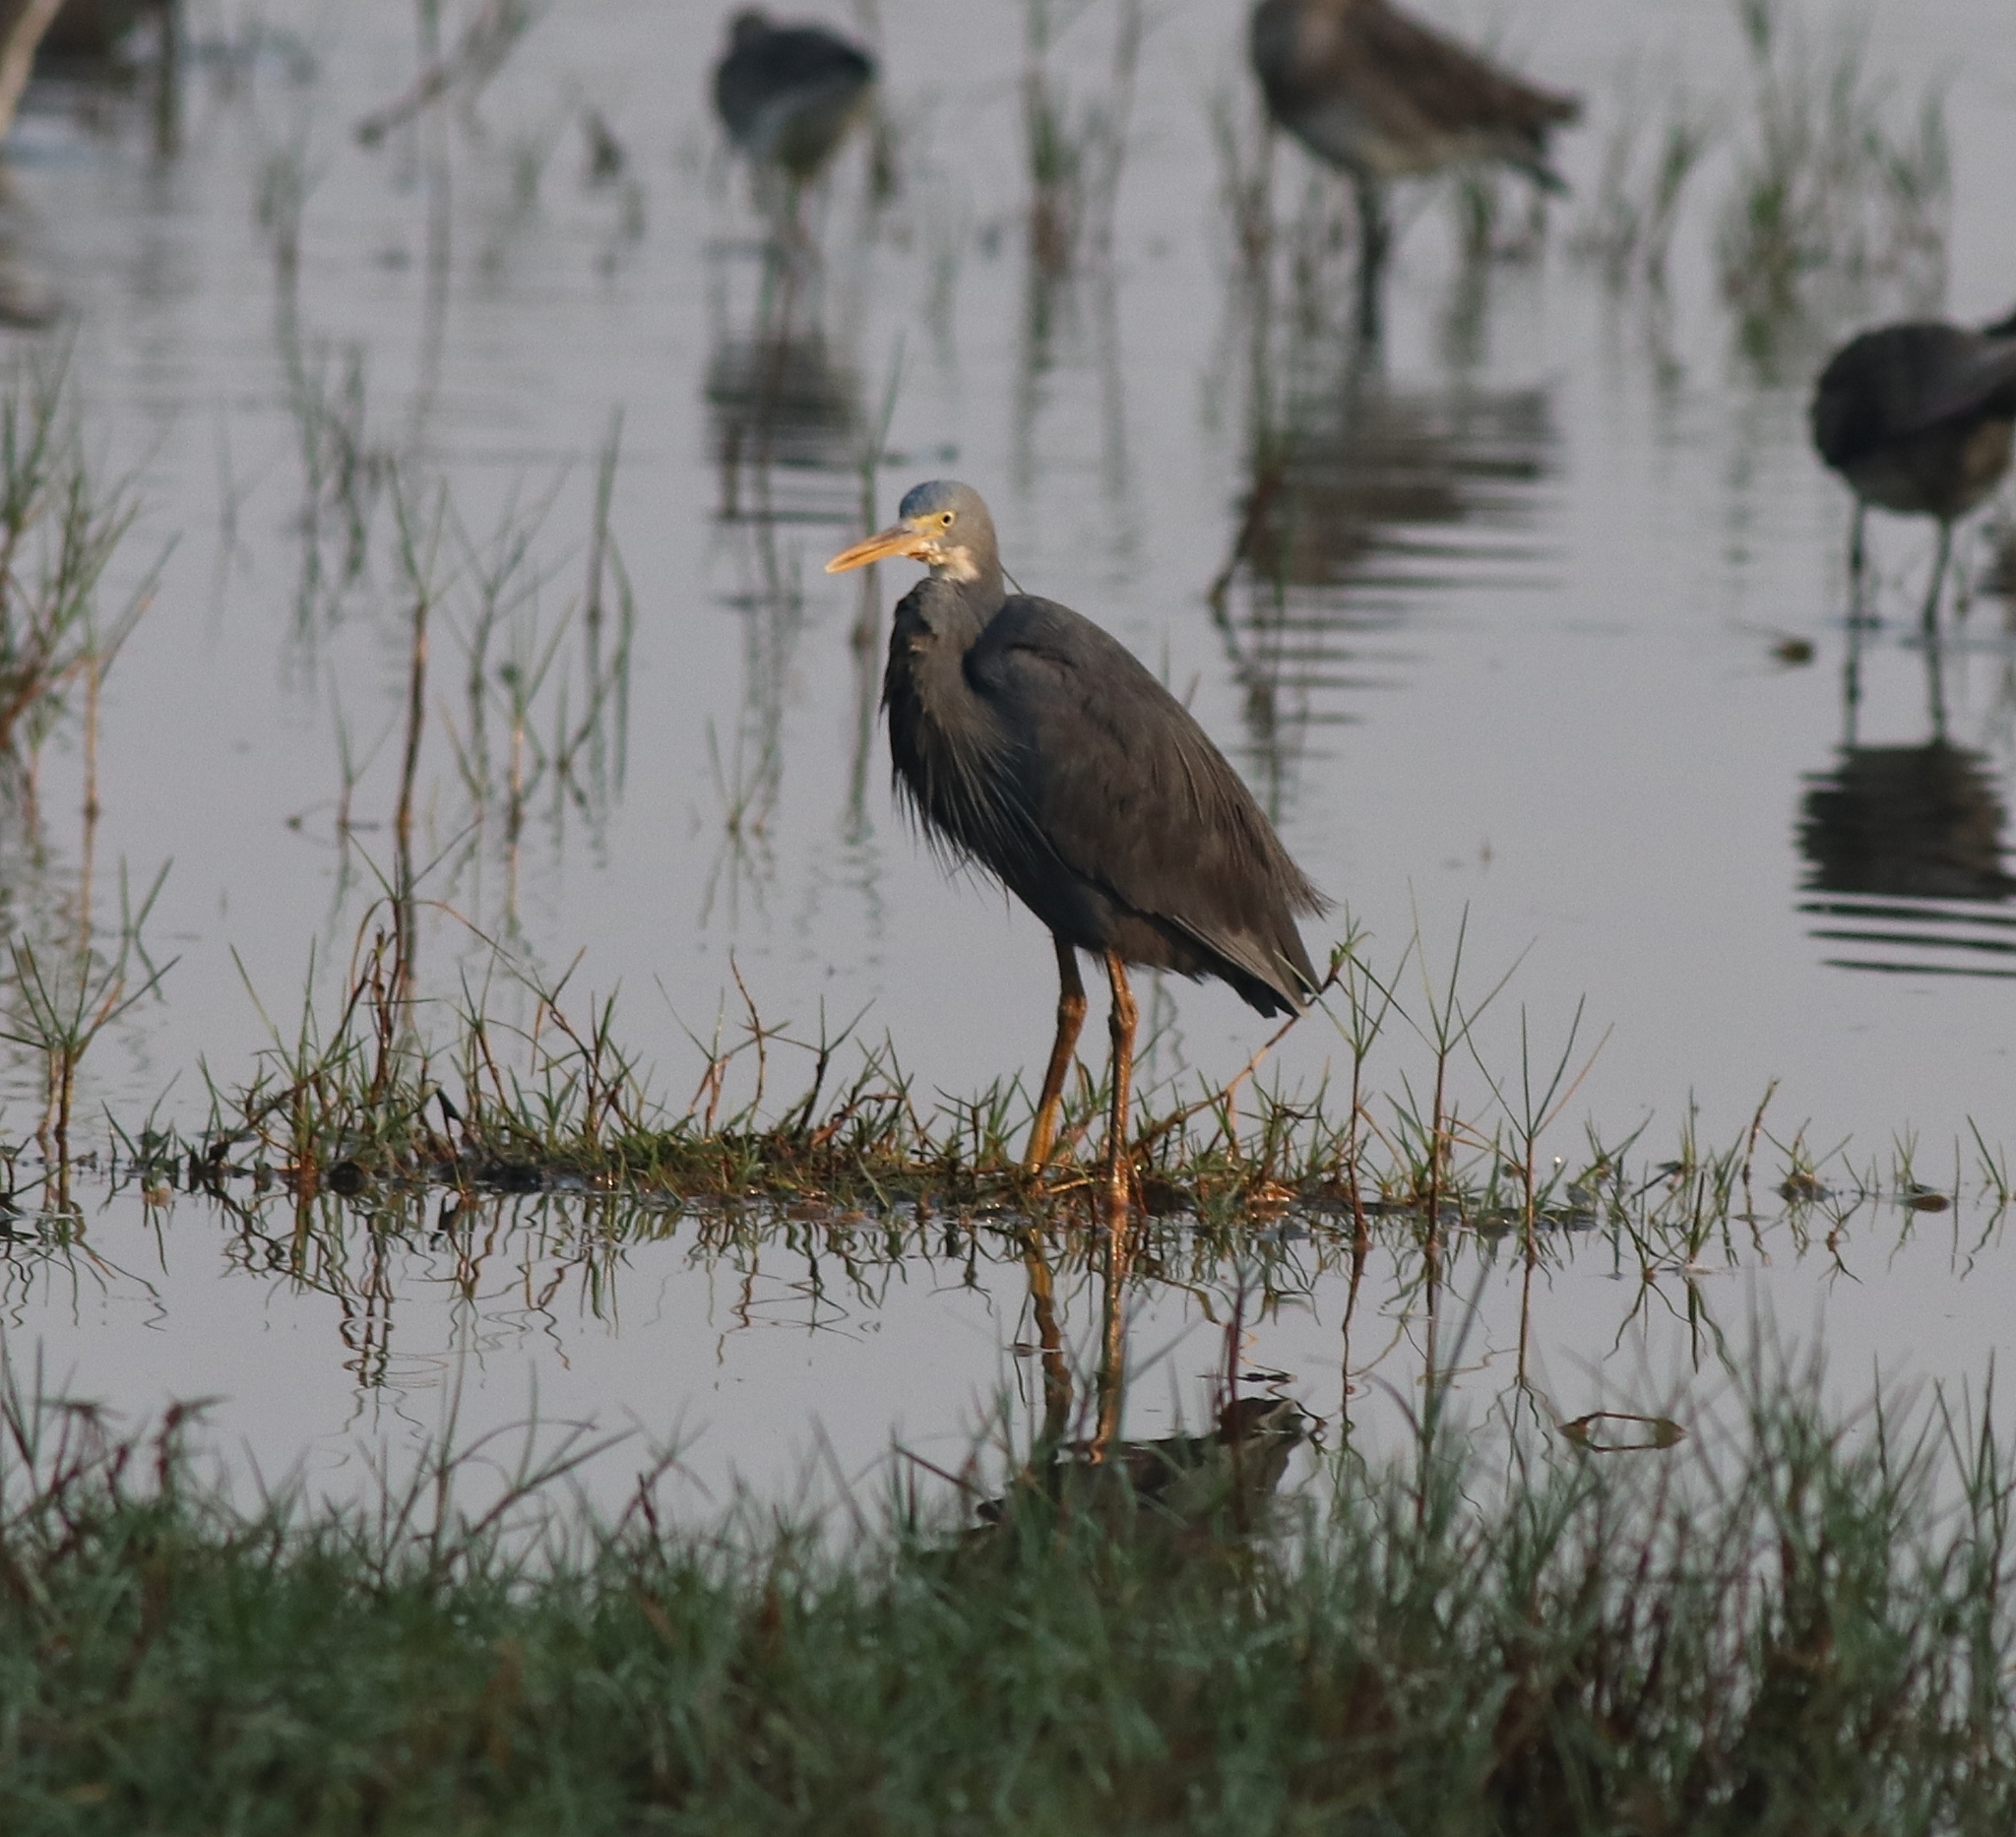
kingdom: Animalia
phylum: Chordata
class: Aves
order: Pelecaniformes
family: Ardeidae
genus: Egretta
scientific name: Egretta gularis
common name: Western reef-heron
